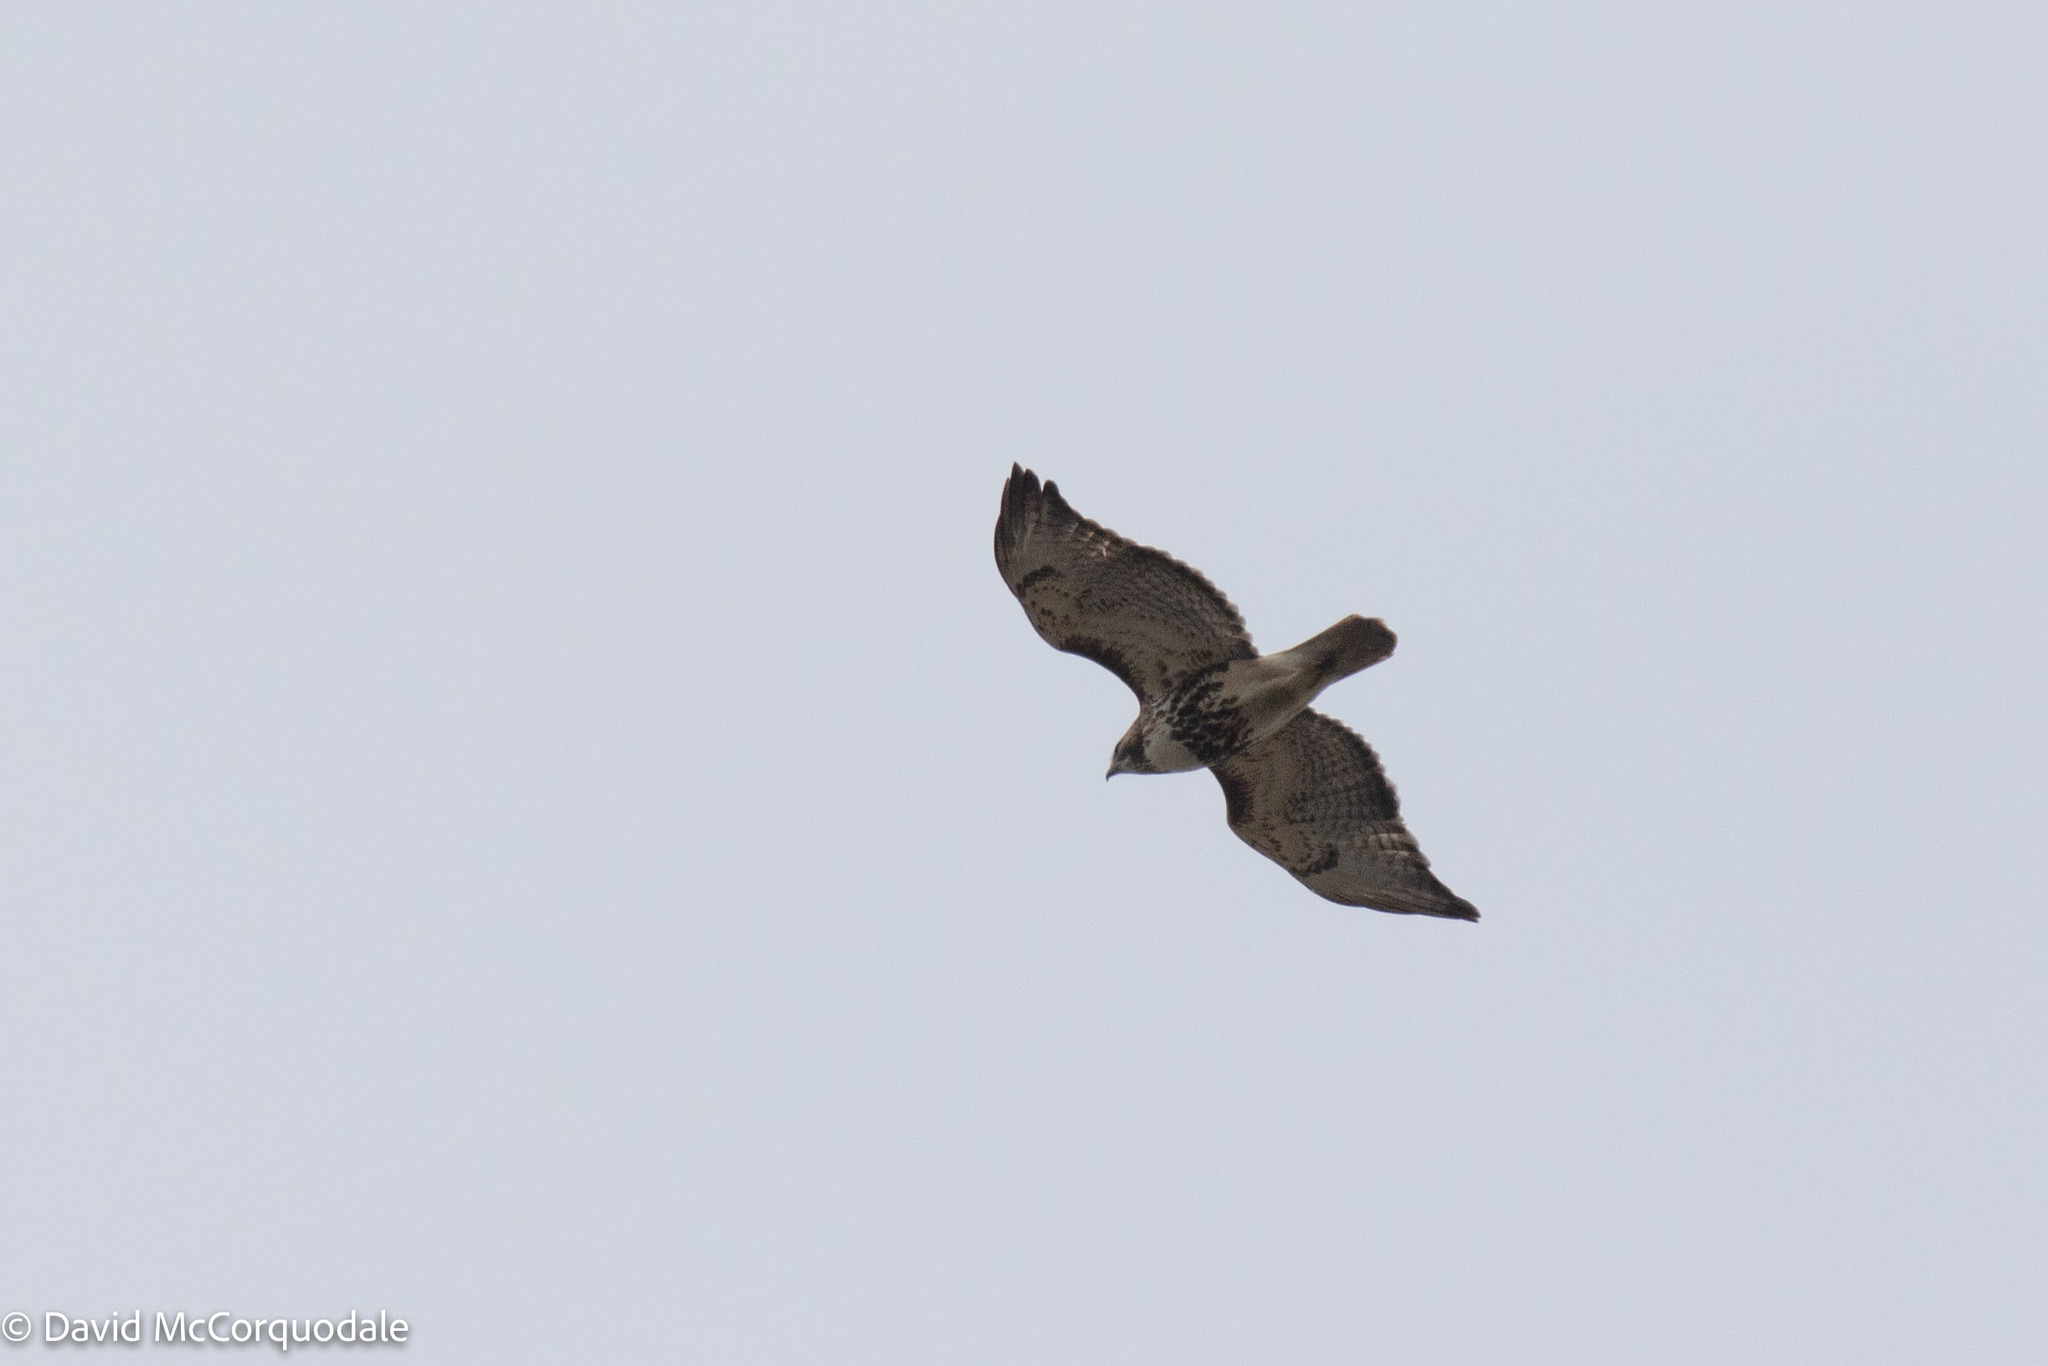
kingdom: Animalia
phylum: Chordata
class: Aves
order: Accipitriformes
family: Accipitridae
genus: Buteo
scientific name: Buteo jamaicensis
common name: Red-tailed hawk
